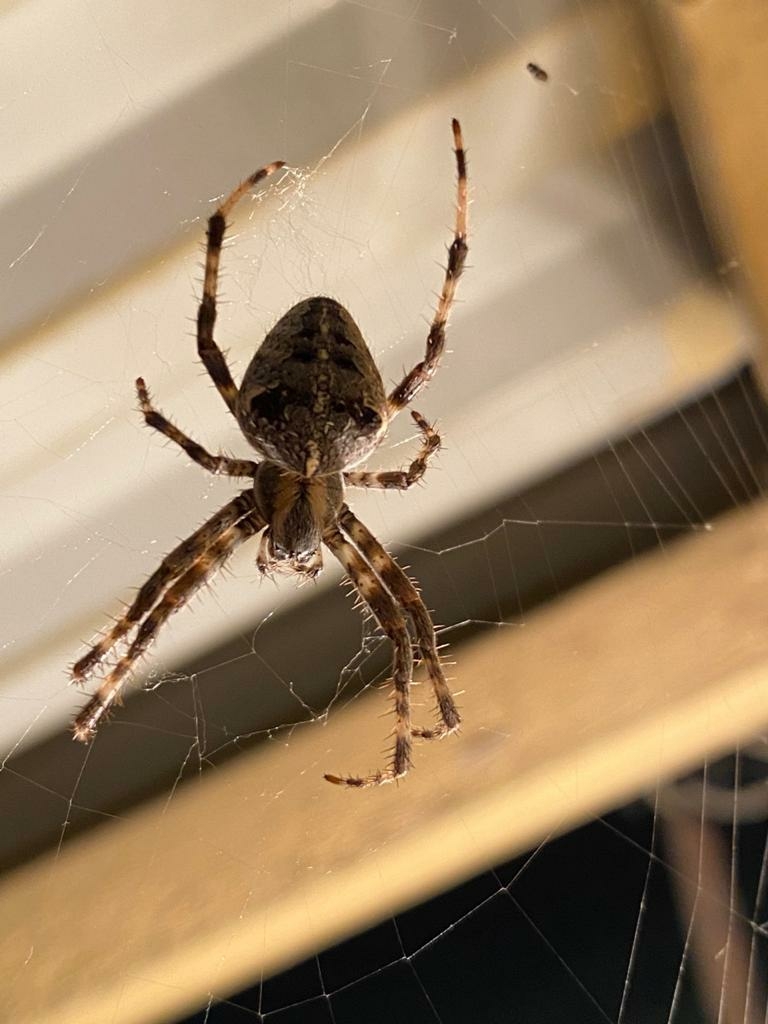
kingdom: Animalia
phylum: Arthropoda
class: Arachnida
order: Araneae
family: Araneidae
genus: Araneus
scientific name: Araneus diadematus
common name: Cross orbweaver
